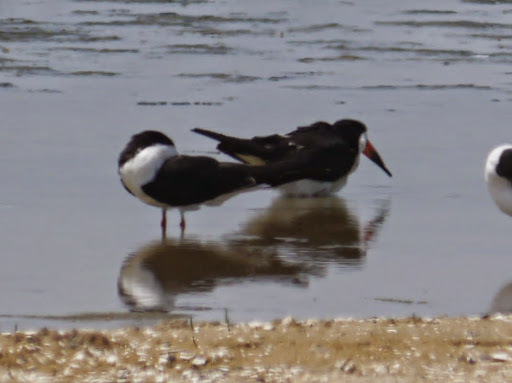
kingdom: Animalia
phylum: Chordata
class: Aves
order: Charadriiformes
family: Laridae
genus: Rynchops
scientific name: Rynchops niger
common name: Black skimmer
